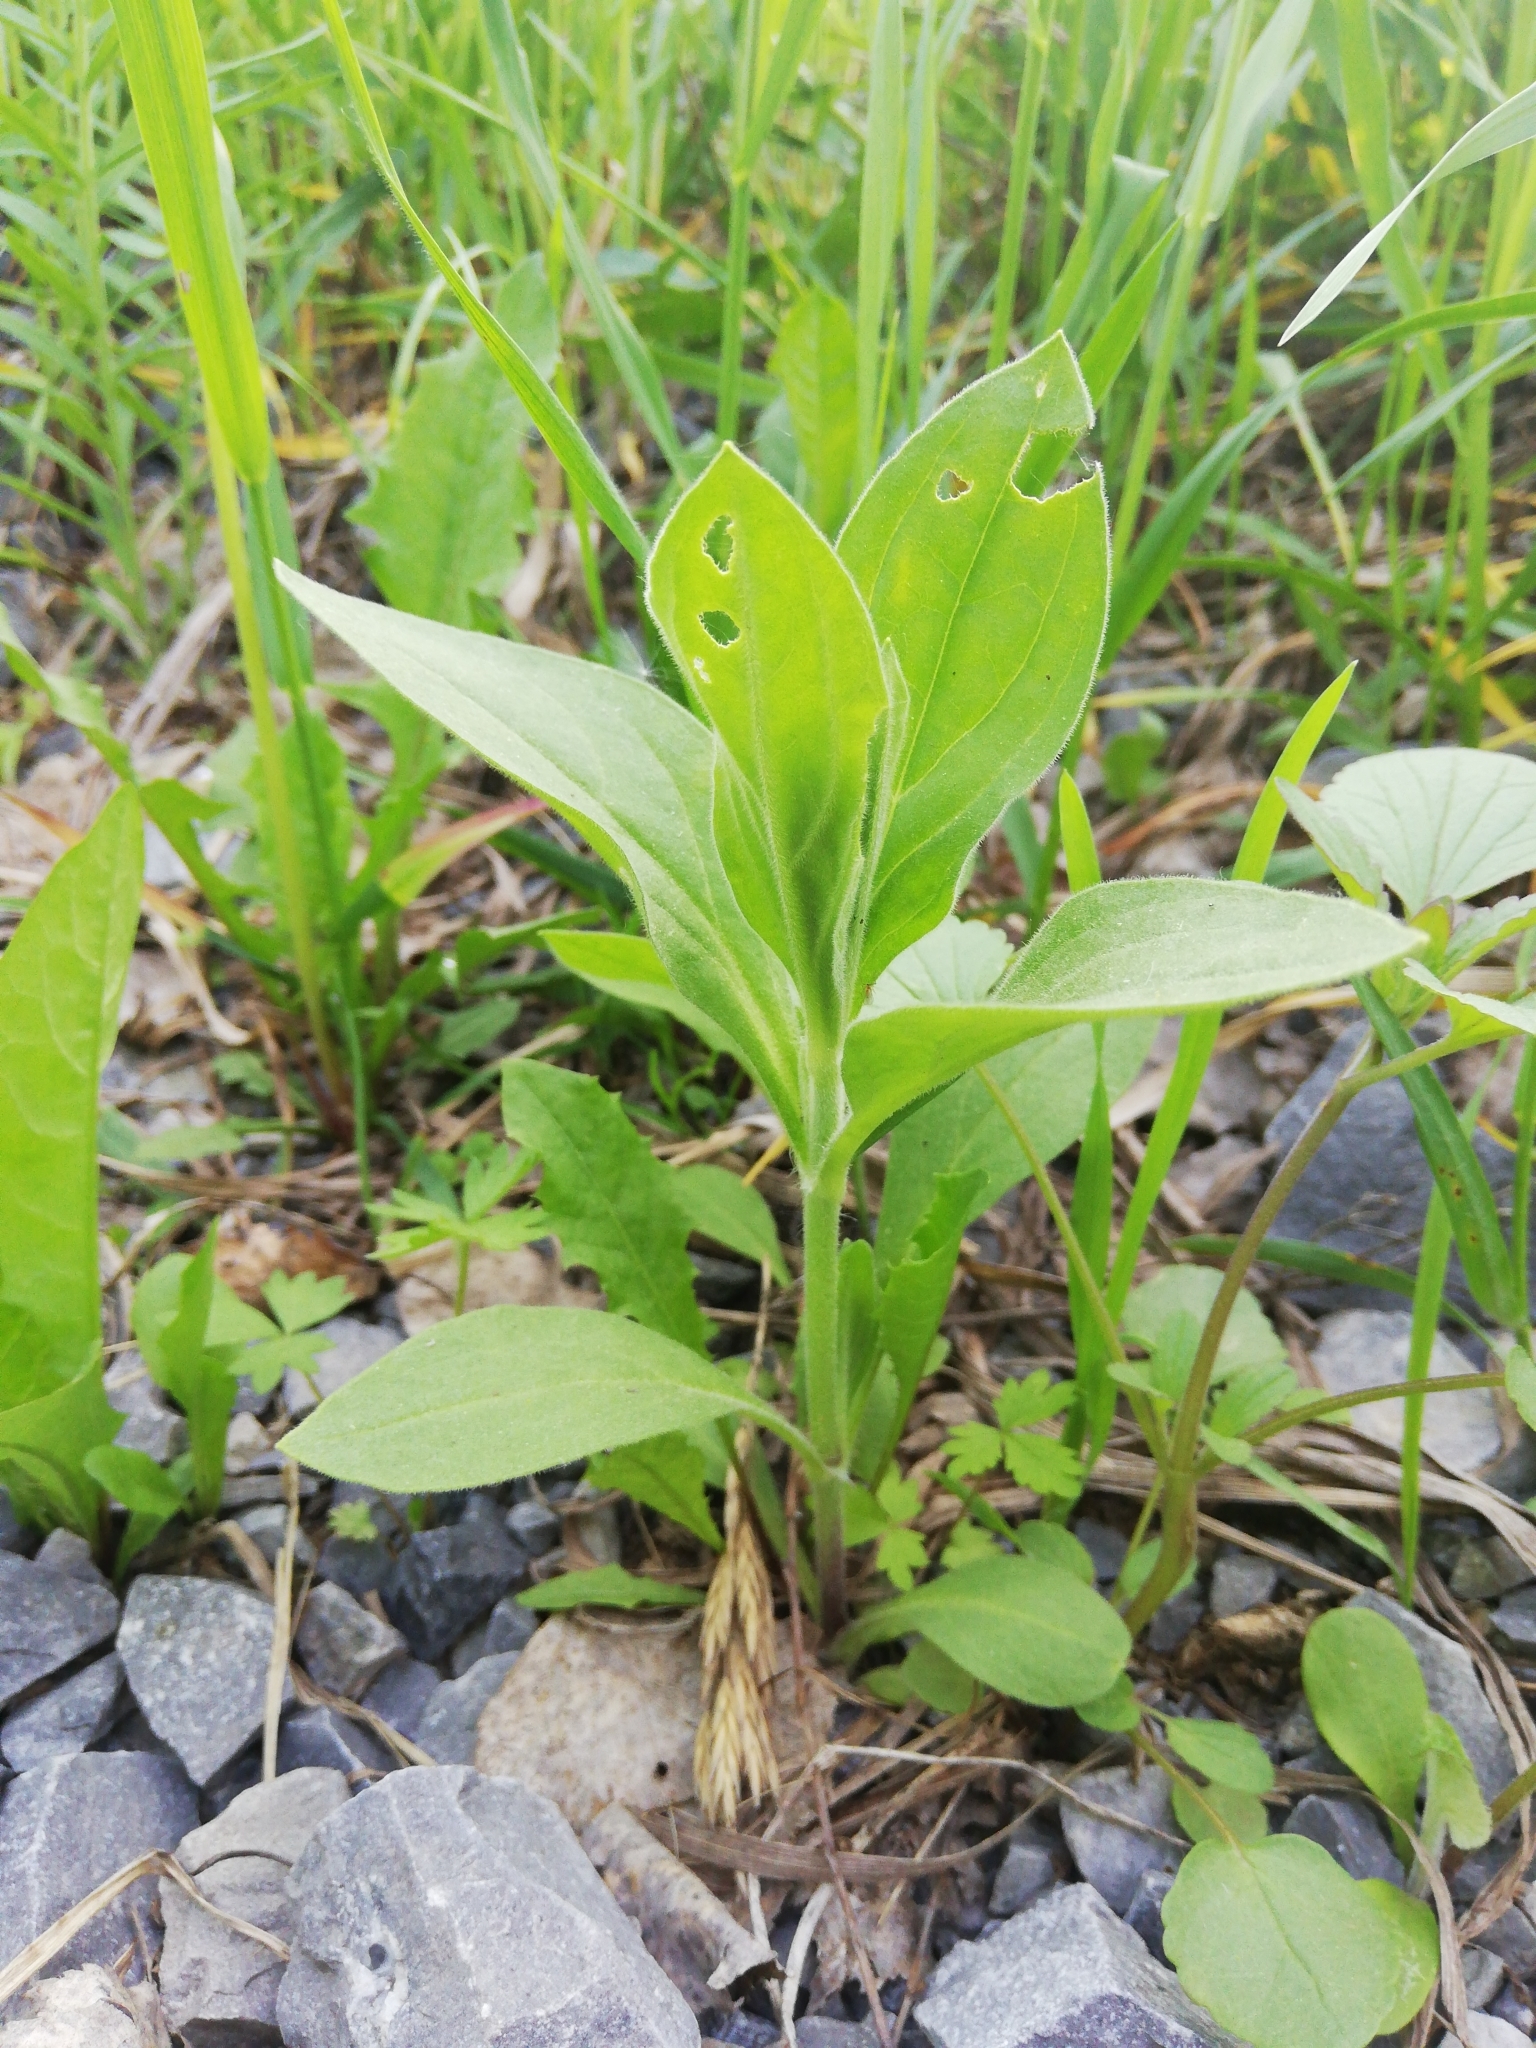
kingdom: Plantae
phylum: Tracheophyta
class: Magnoliopsida
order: Caryophyllales
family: Caryophyllaceae
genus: Silene
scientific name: Silene latifolia
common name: White campion
